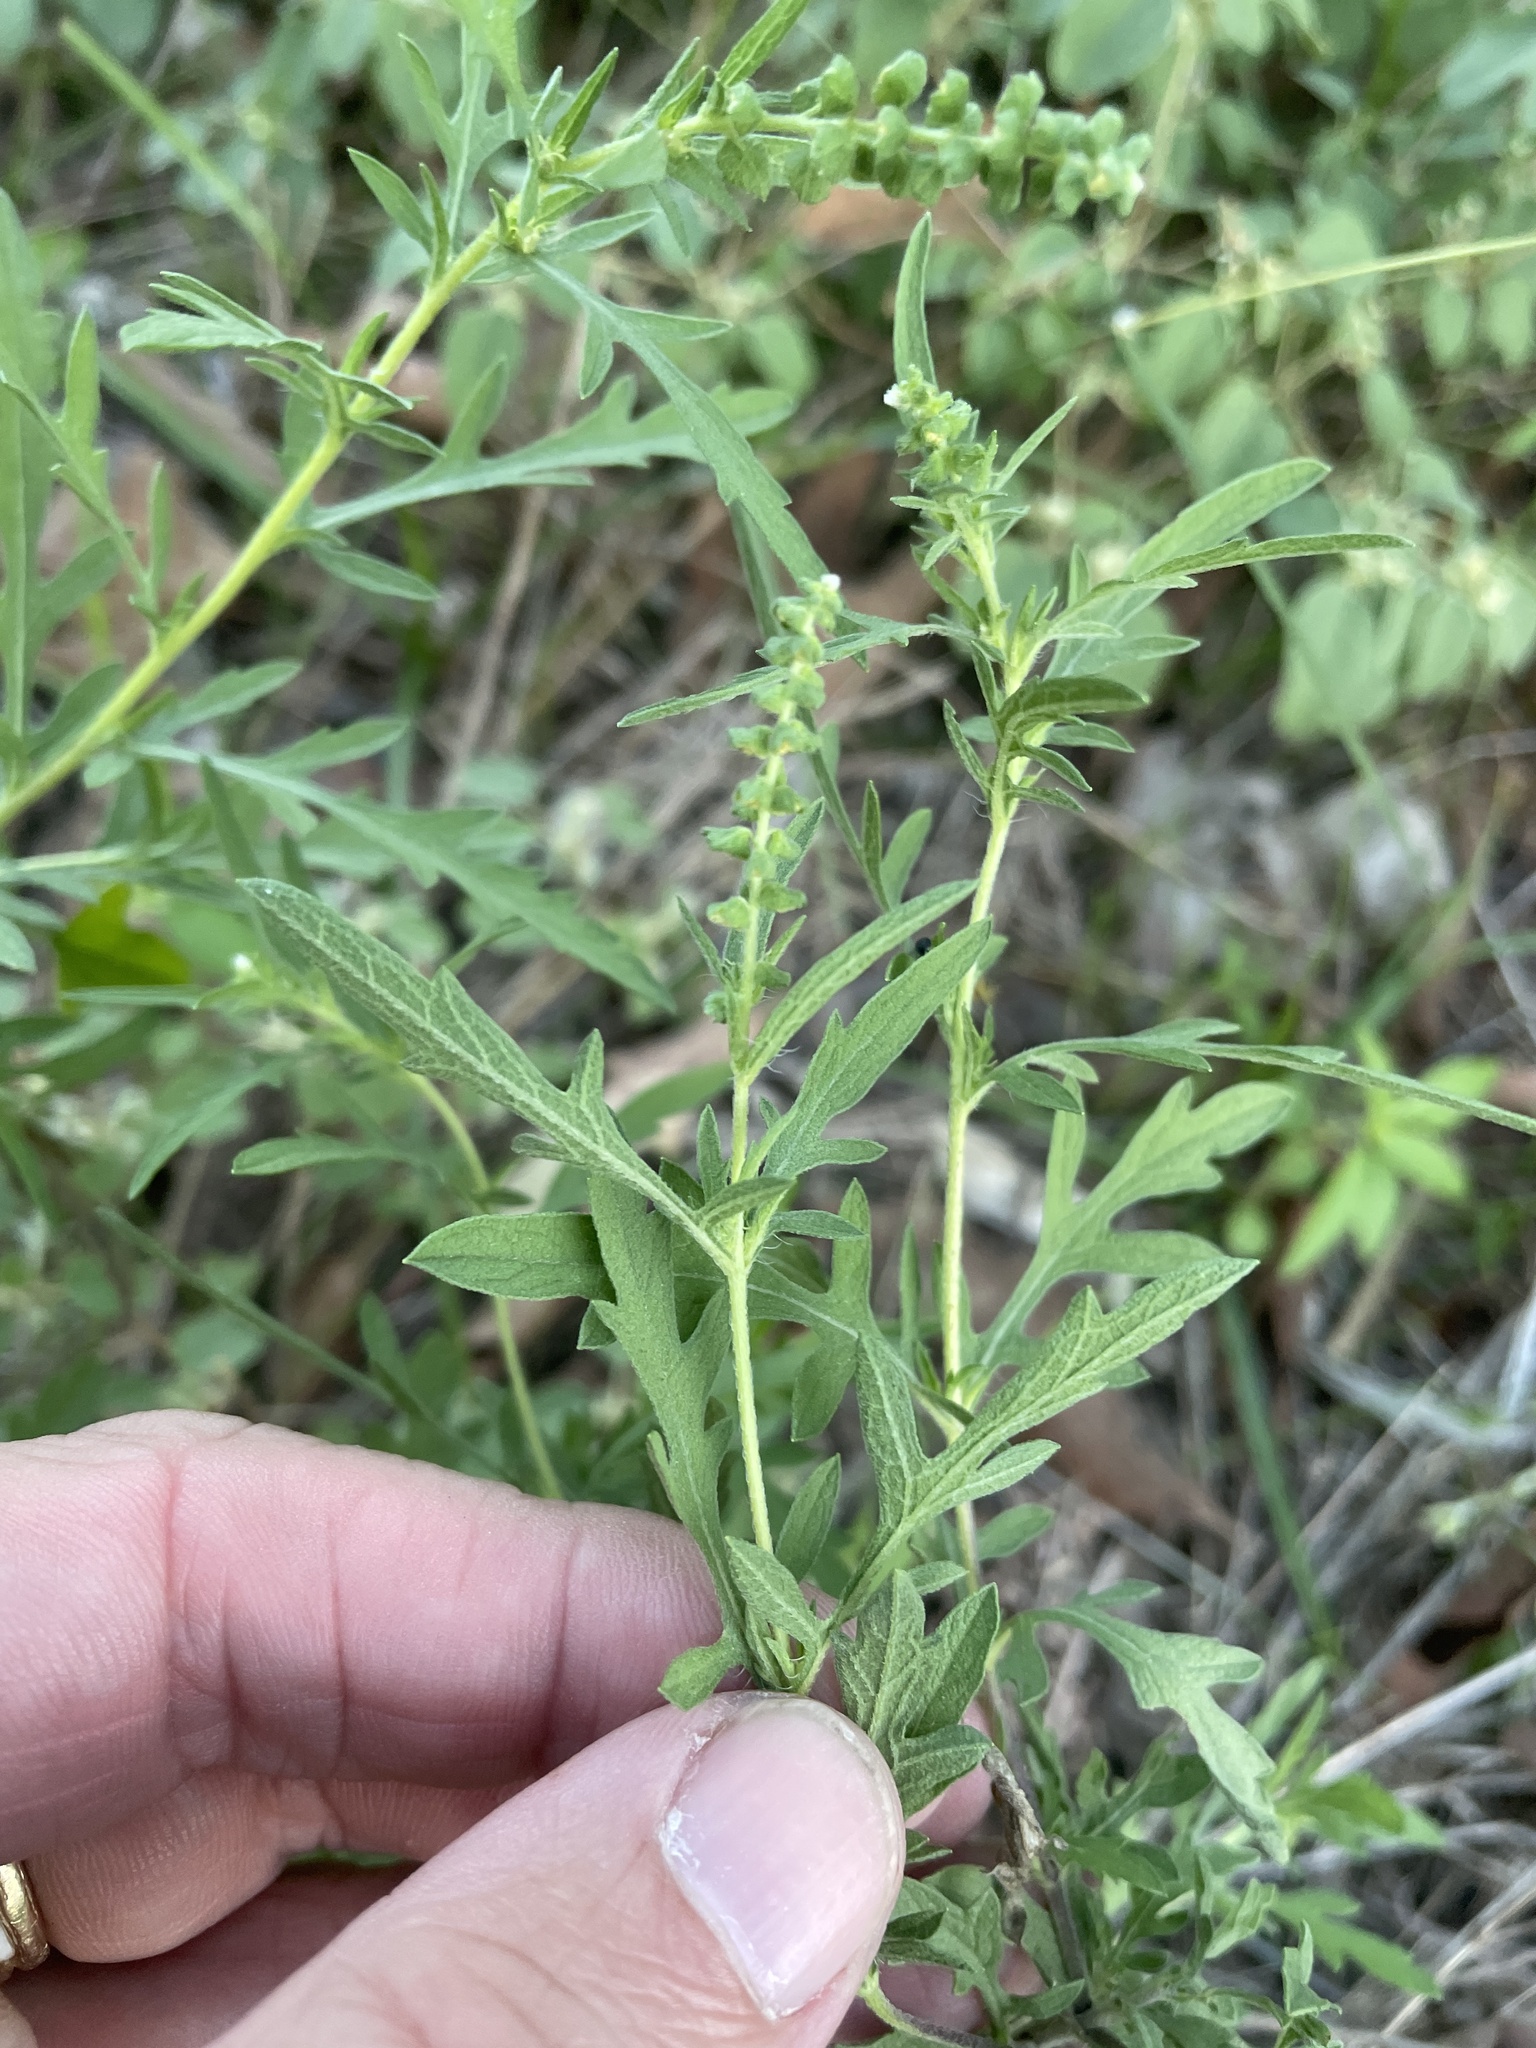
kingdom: Plantae
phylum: Tracheophyta
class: Magnoliopsida
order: Asterales
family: Asteraceae
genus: Ambrosia
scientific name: Ambrosia psilostachya
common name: Perennial ragweed
